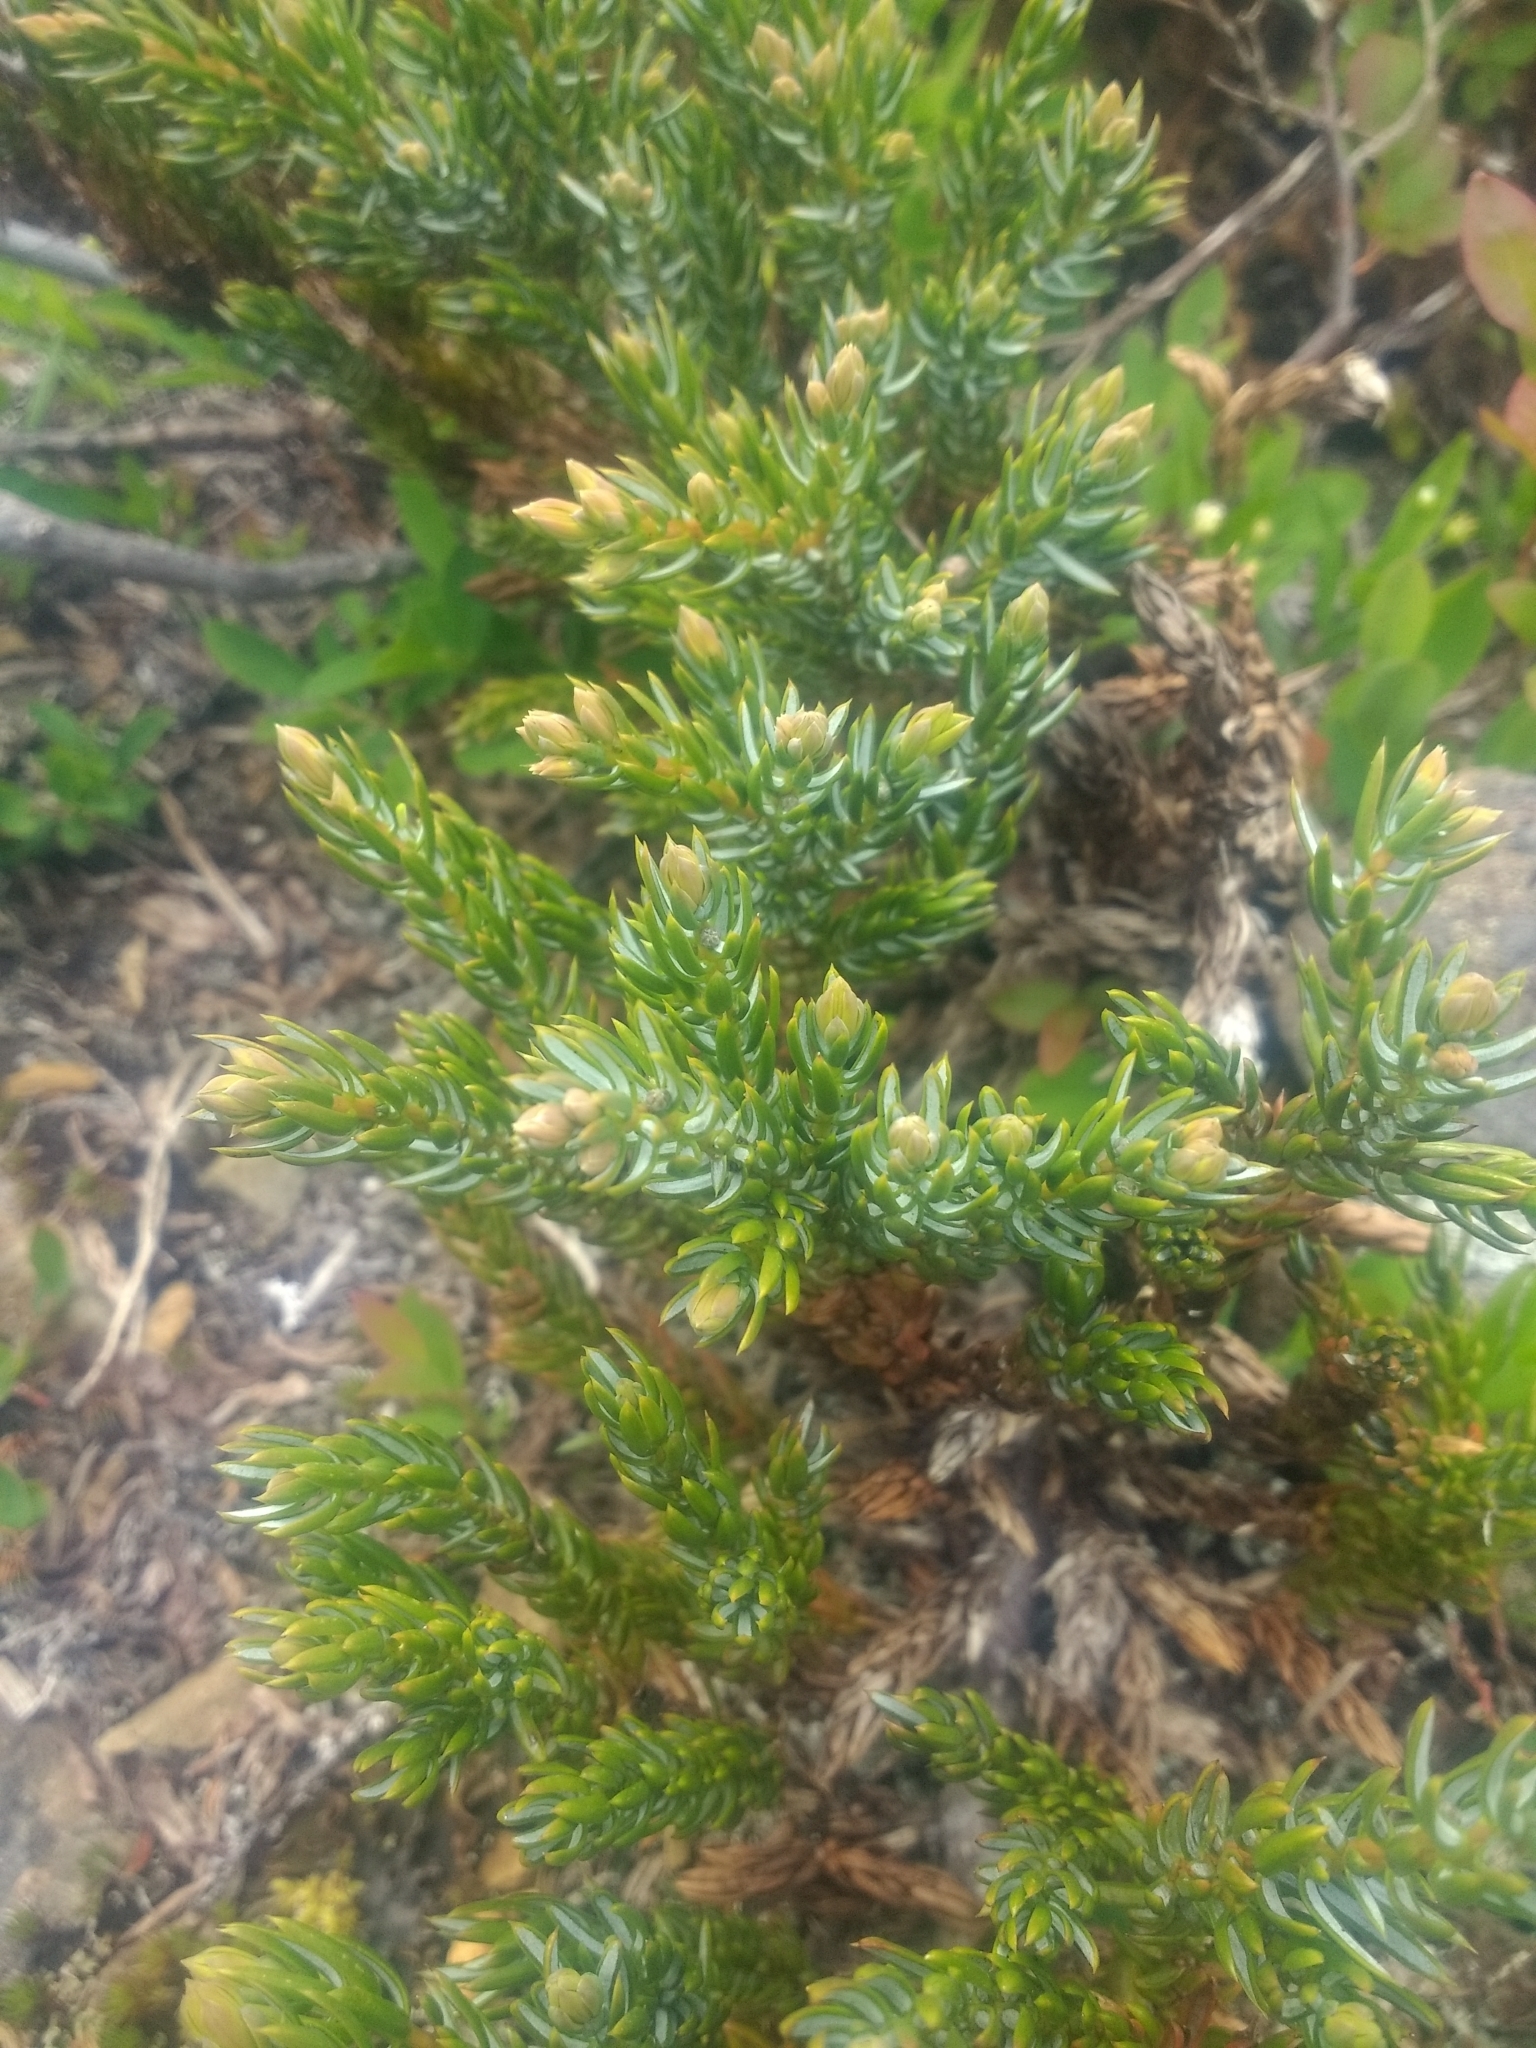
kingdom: Plantae
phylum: Tracheophyta
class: Pinopsida
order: Pinales
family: Cupressaceae
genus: Juniperus
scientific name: Juniperus communis
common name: Common juniper
